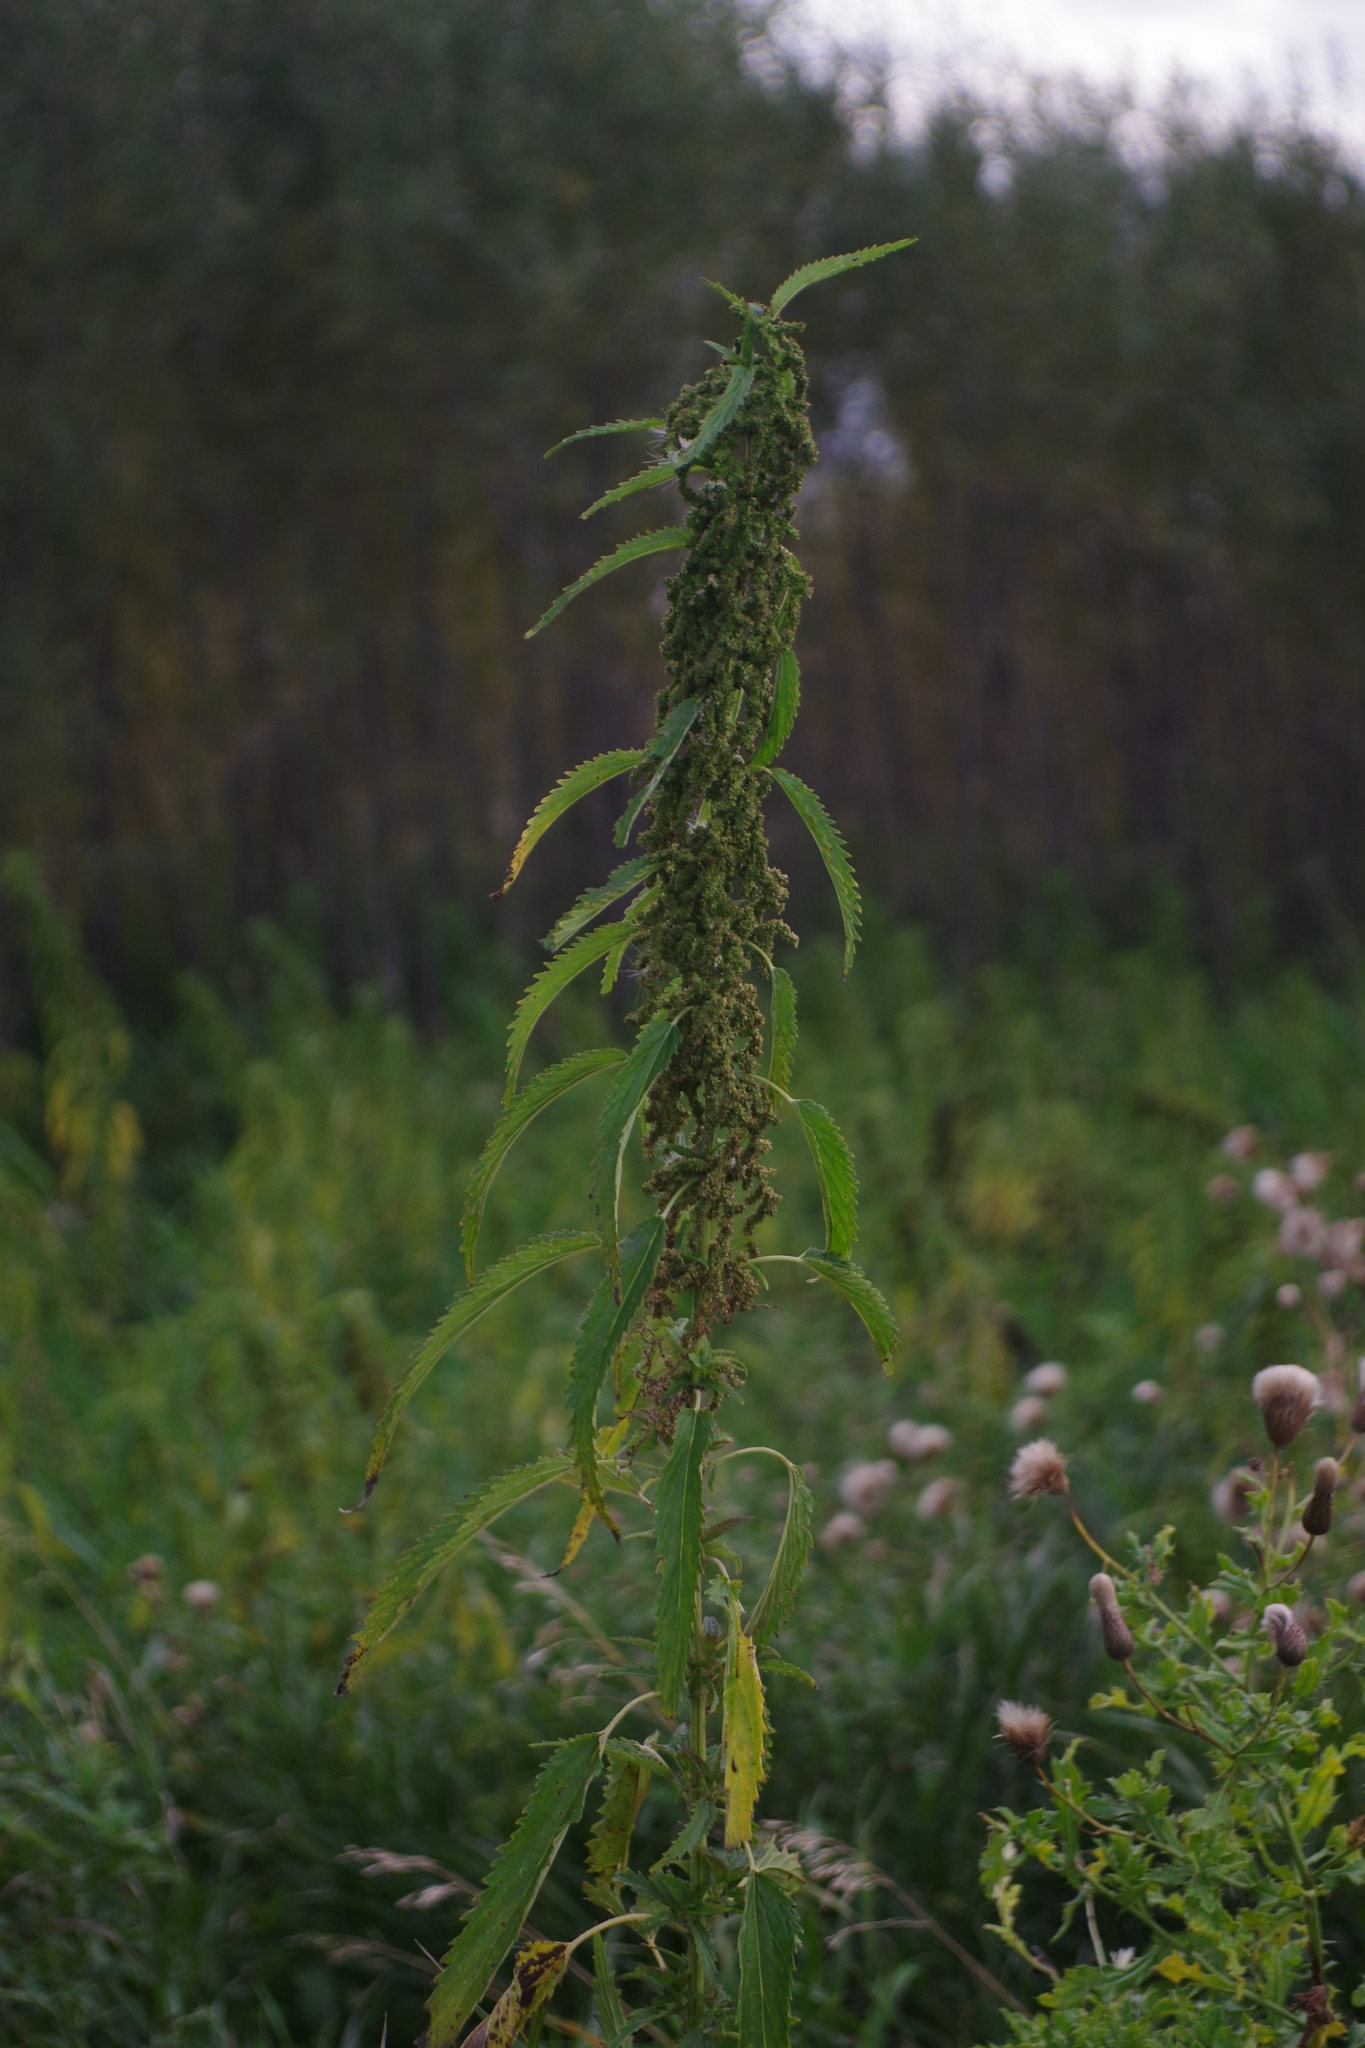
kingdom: Plantae
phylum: Tracheophyta
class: Magnoliopsida
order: Rosales
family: Urticaceae
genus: Urtica
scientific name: Urtica gracilis
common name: Slender stinging nettle
